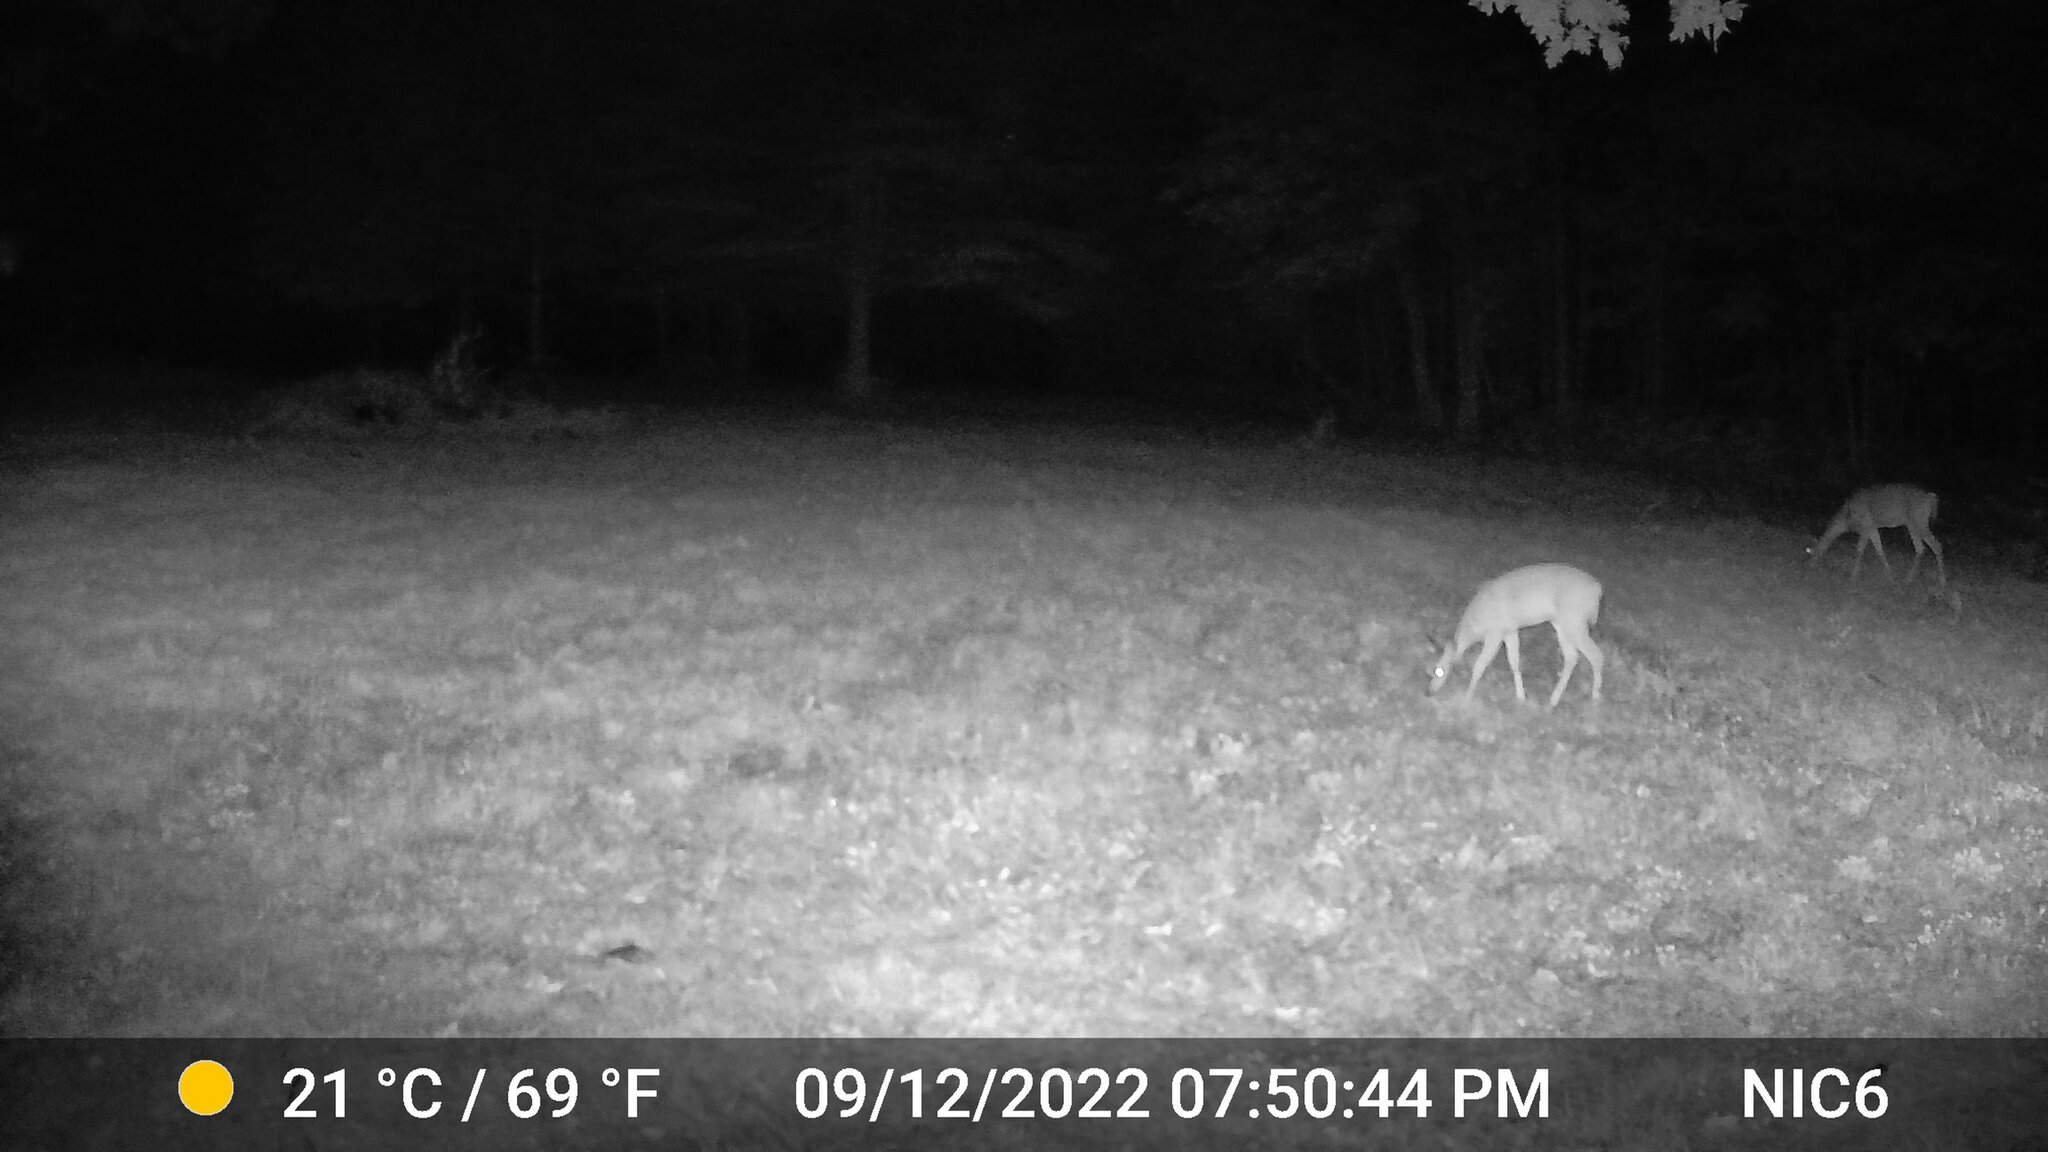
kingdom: Animalia
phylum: Chordata
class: Mammalia
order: Artiodactyla
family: Cervidae
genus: Odocoileus
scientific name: Odocoileus virginianus
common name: White-tailed deer
